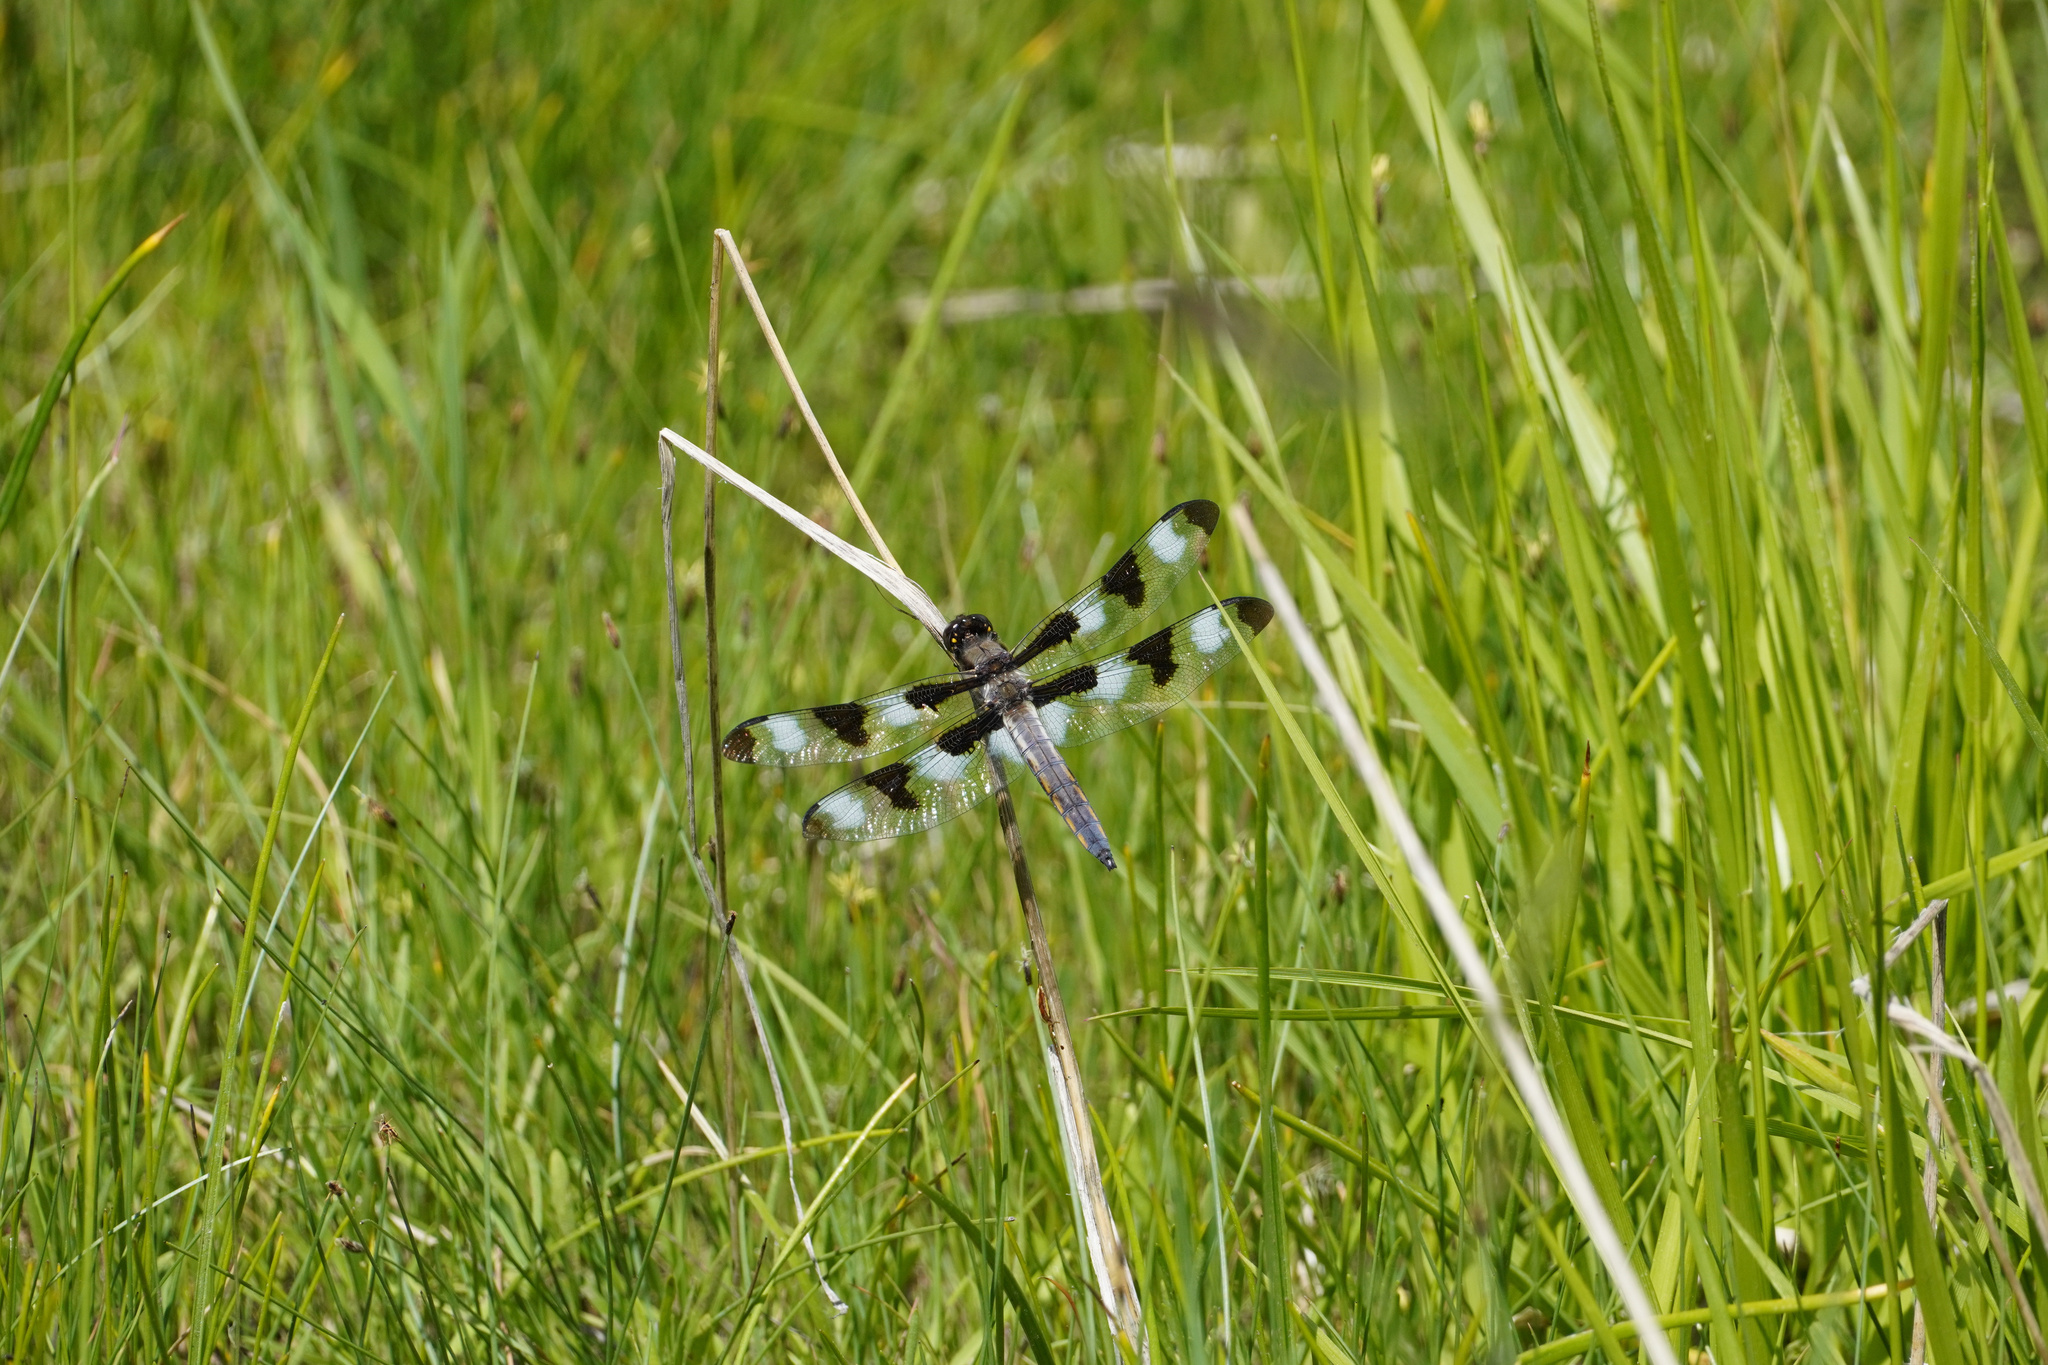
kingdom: Animalia
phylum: Arthropoda
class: Insecta
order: Odonata
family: Libellulidae
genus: Libellula
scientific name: Libellula pulchella
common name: Twelve-spotted skimmer
